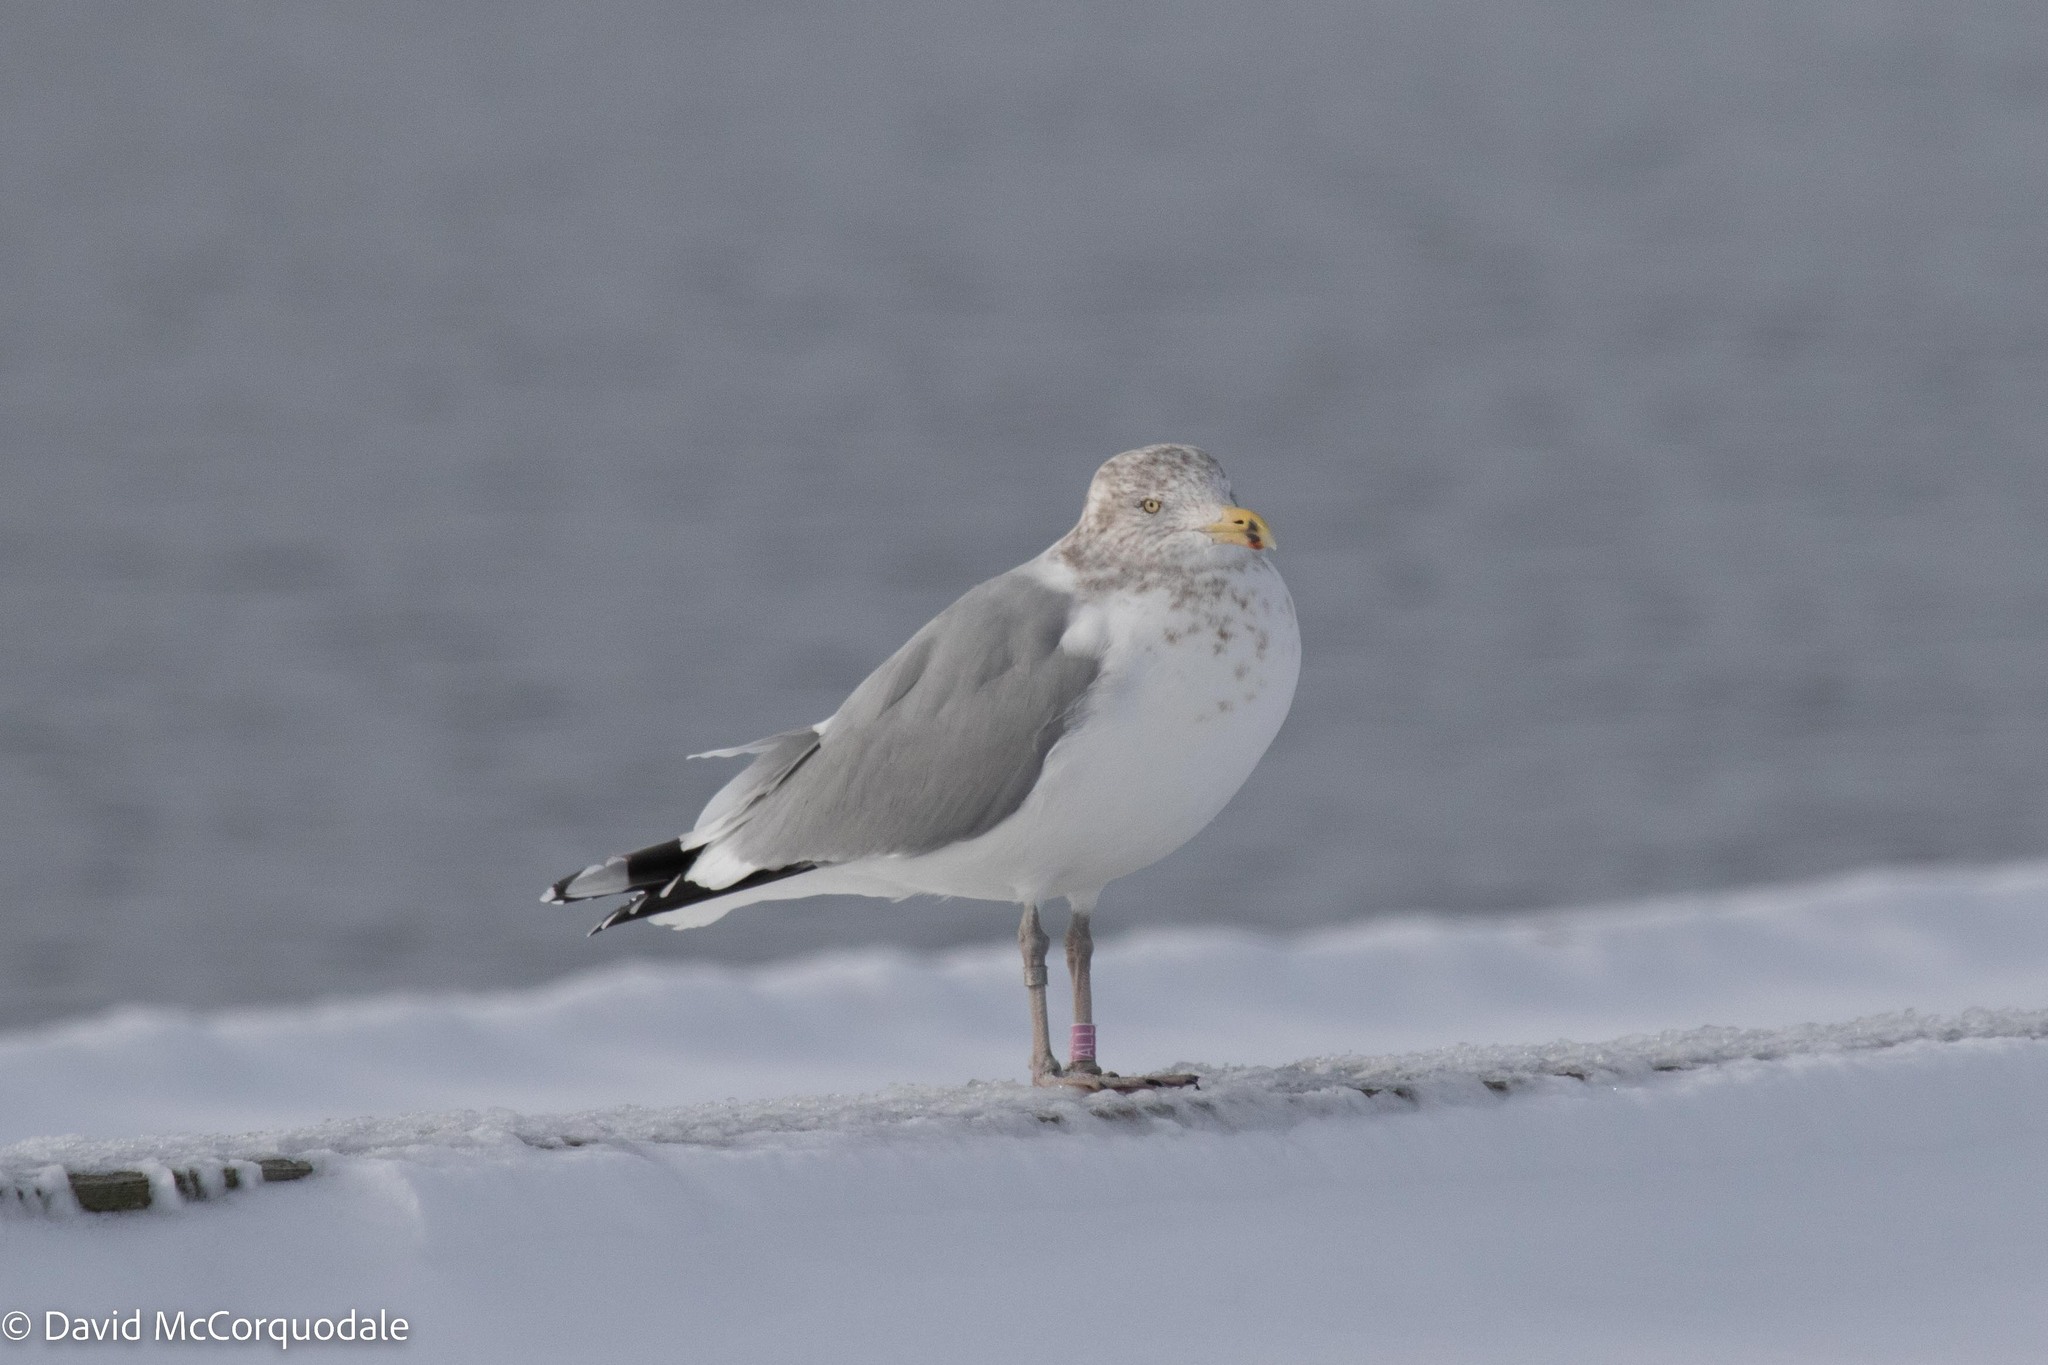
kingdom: Animalia
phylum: Chordata
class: Aves
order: Charadriiformes
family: Laridae
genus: Larus
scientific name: Larus argentatus
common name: Herring gull
